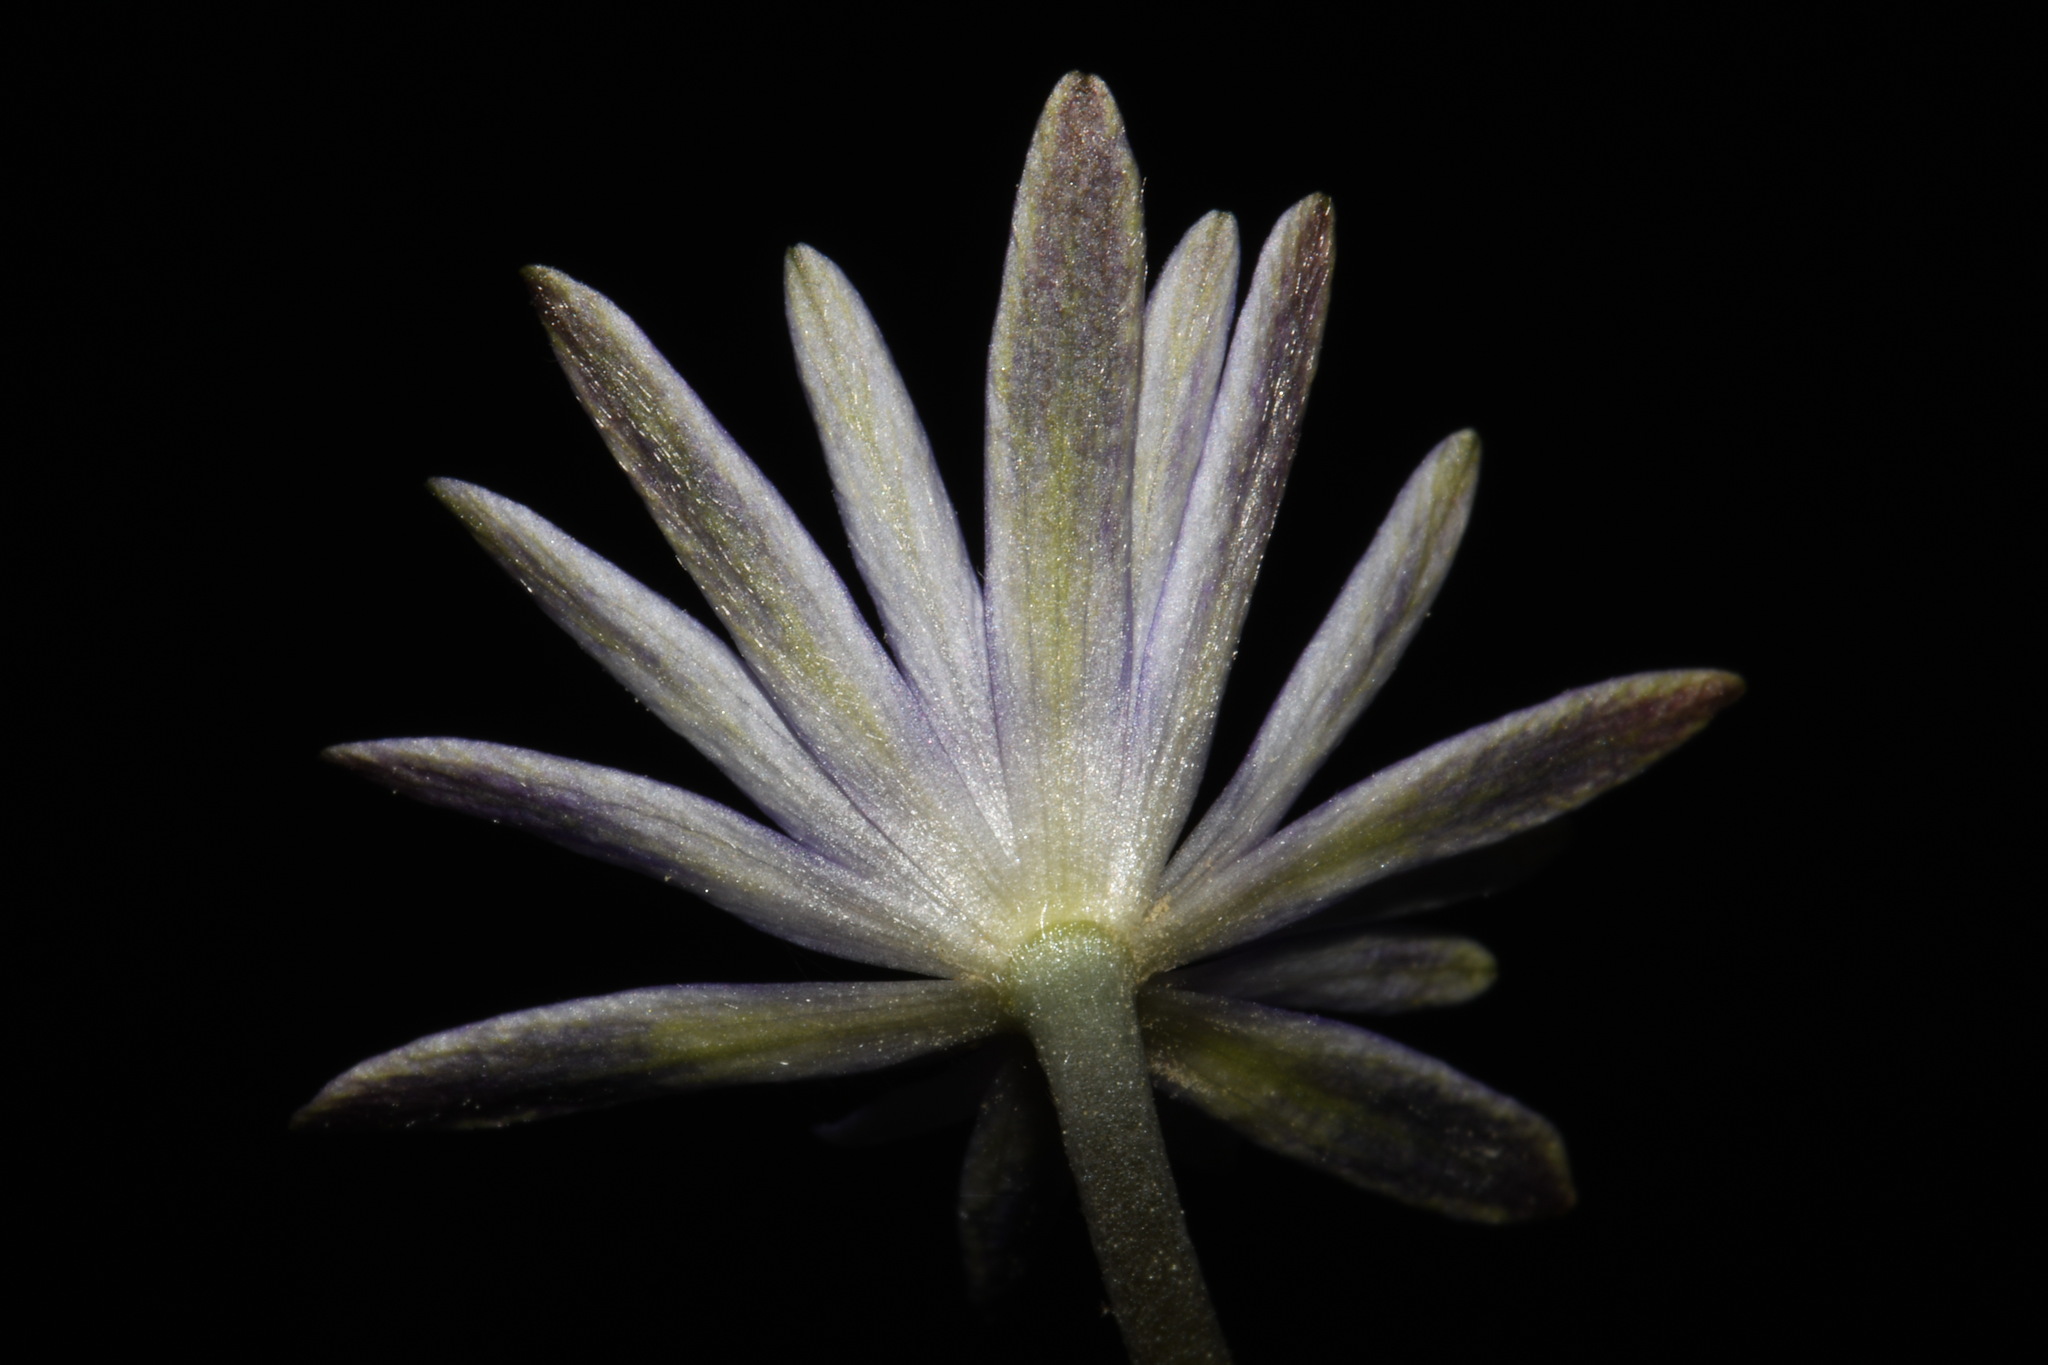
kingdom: Plantae
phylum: Tracheophyta
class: Magnoliopsida
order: Ranunculales
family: Ranunculaceae
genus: Anemone
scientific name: Anemone berlandieri
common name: Ten-petal anemone
